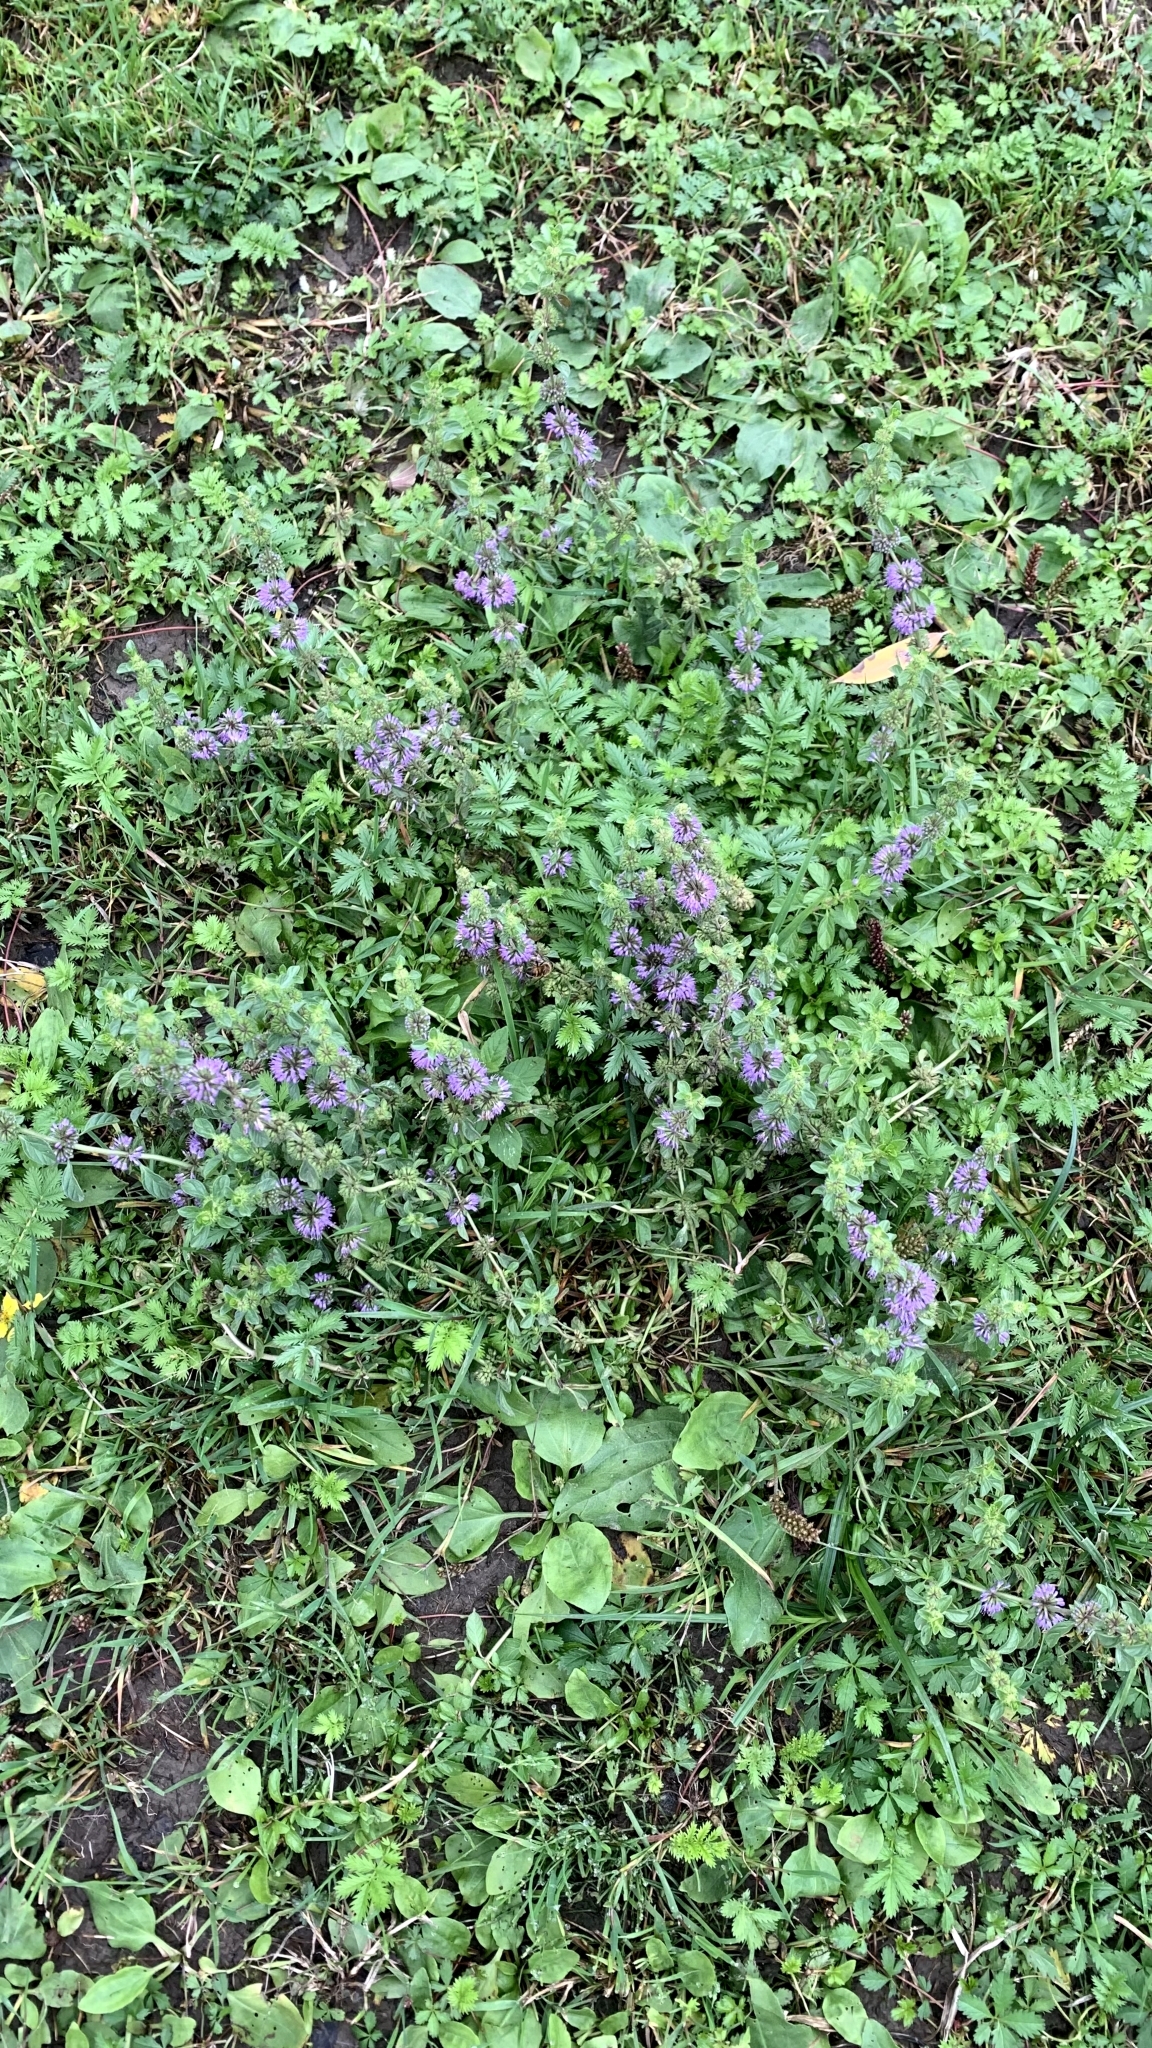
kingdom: Plantae
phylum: Tracheophyta
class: Magnoliopsida
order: Lamiales
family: Lamiaceae
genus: Mentha
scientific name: Mentha pulegium
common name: Pennyroyal
